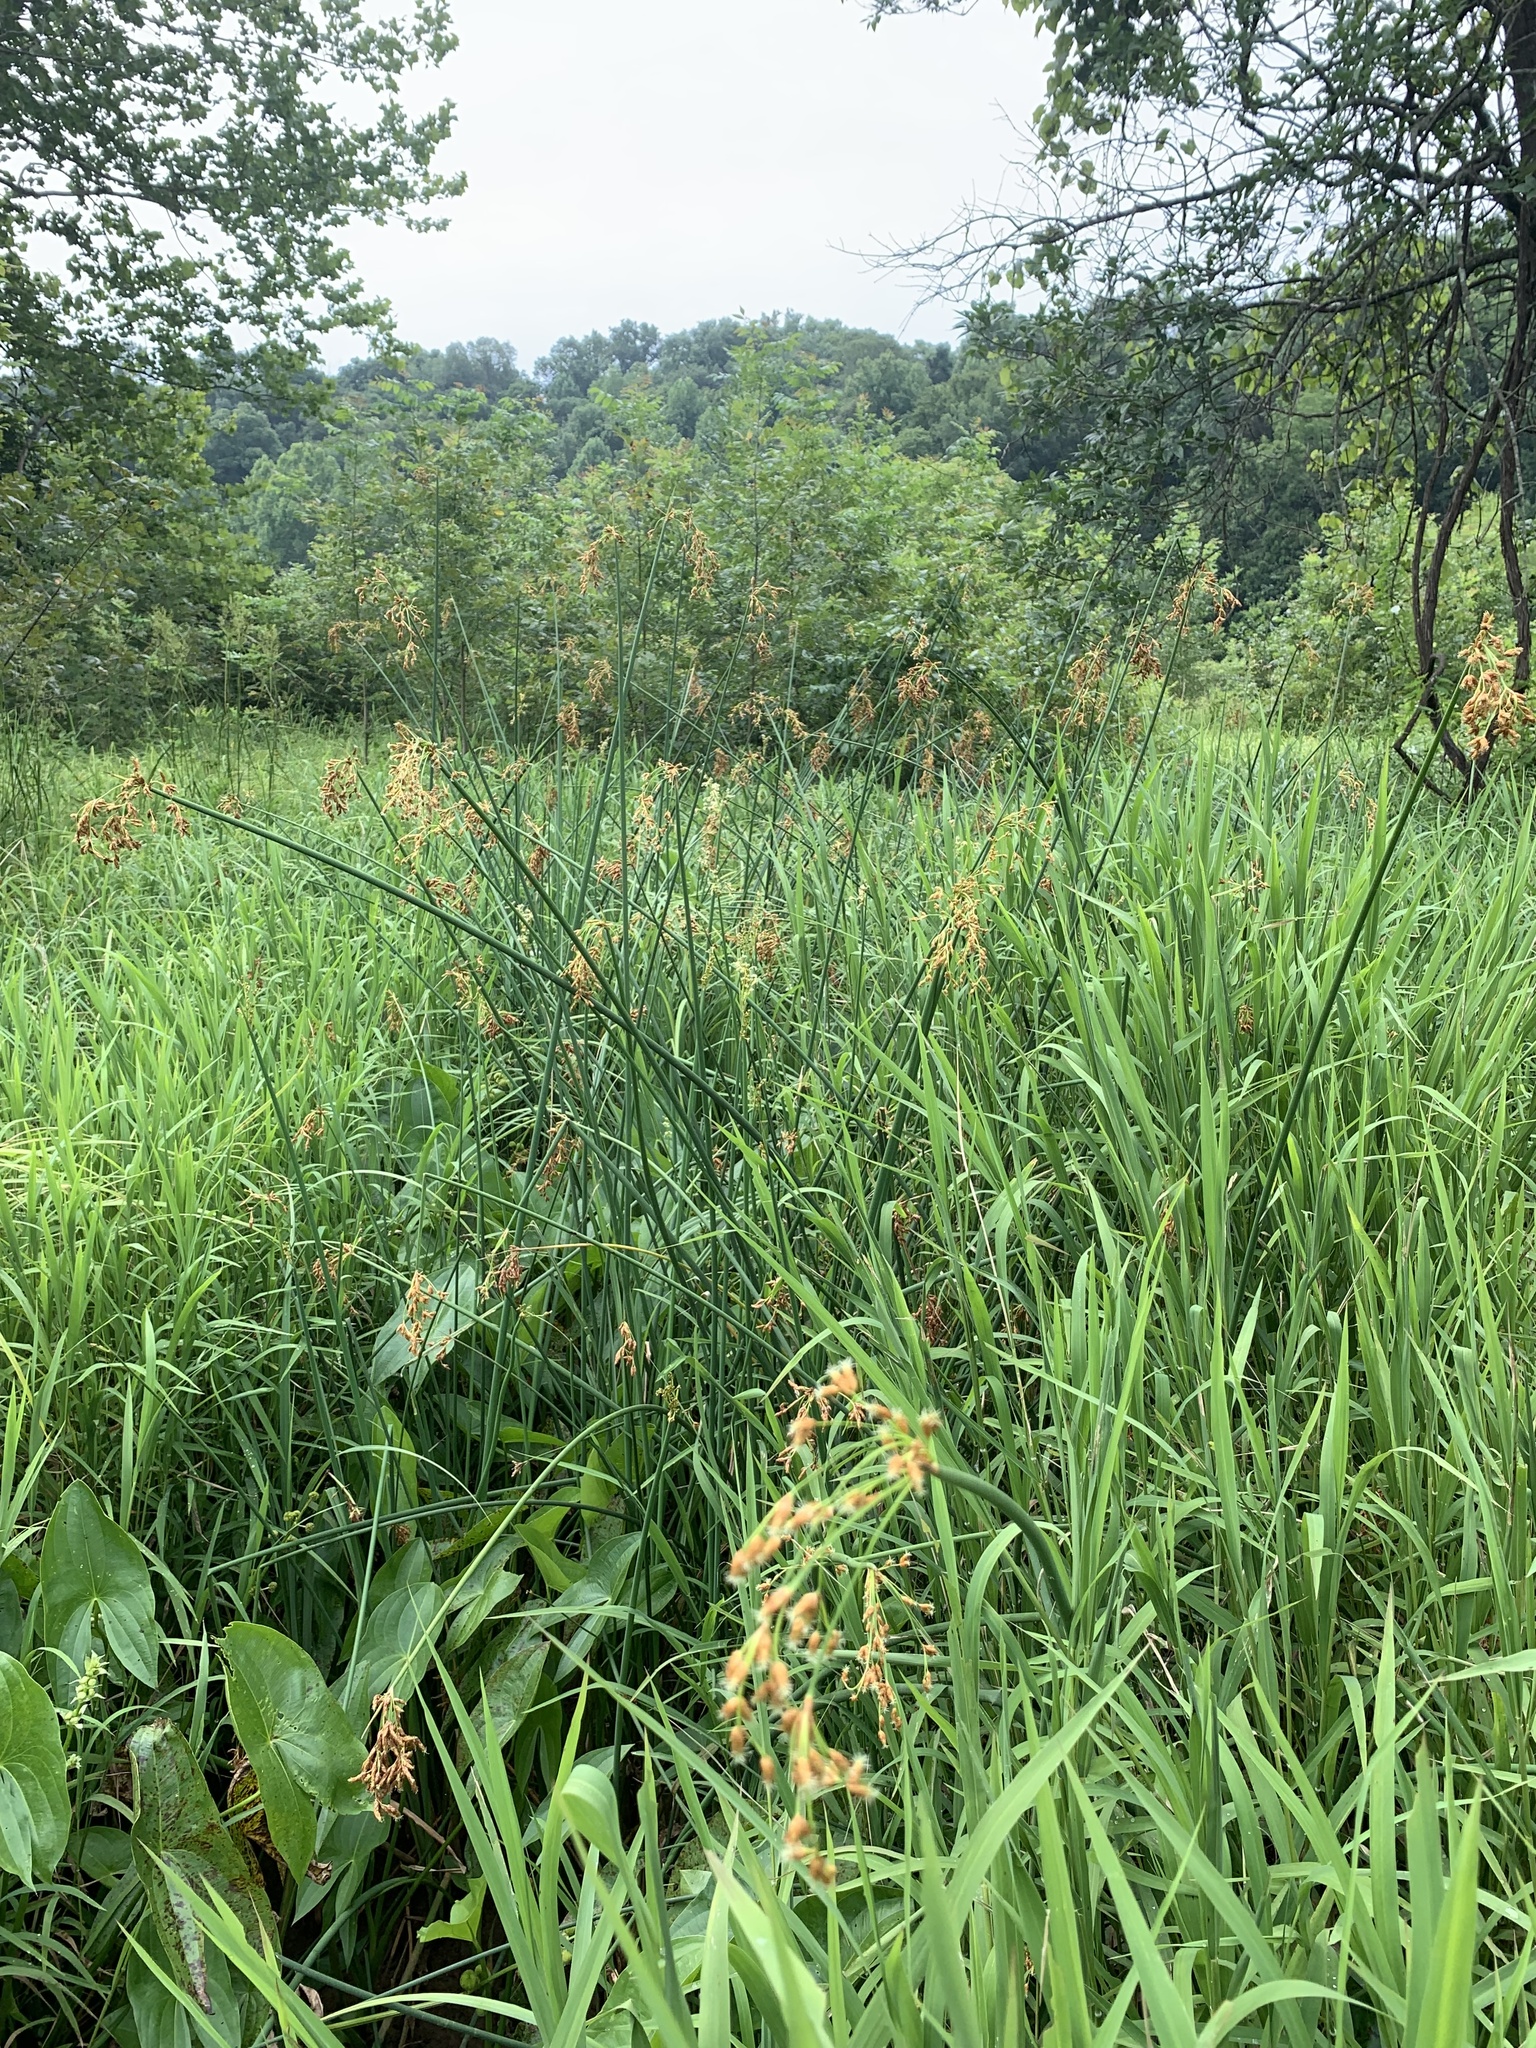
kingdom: Plantae
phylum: Tracheophyta
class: Liliopsida
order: Poales
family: Cyperaceae
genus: Schoenoplectus
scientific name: Schoenoplectus tabernaemontani
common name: Grey club-rush
